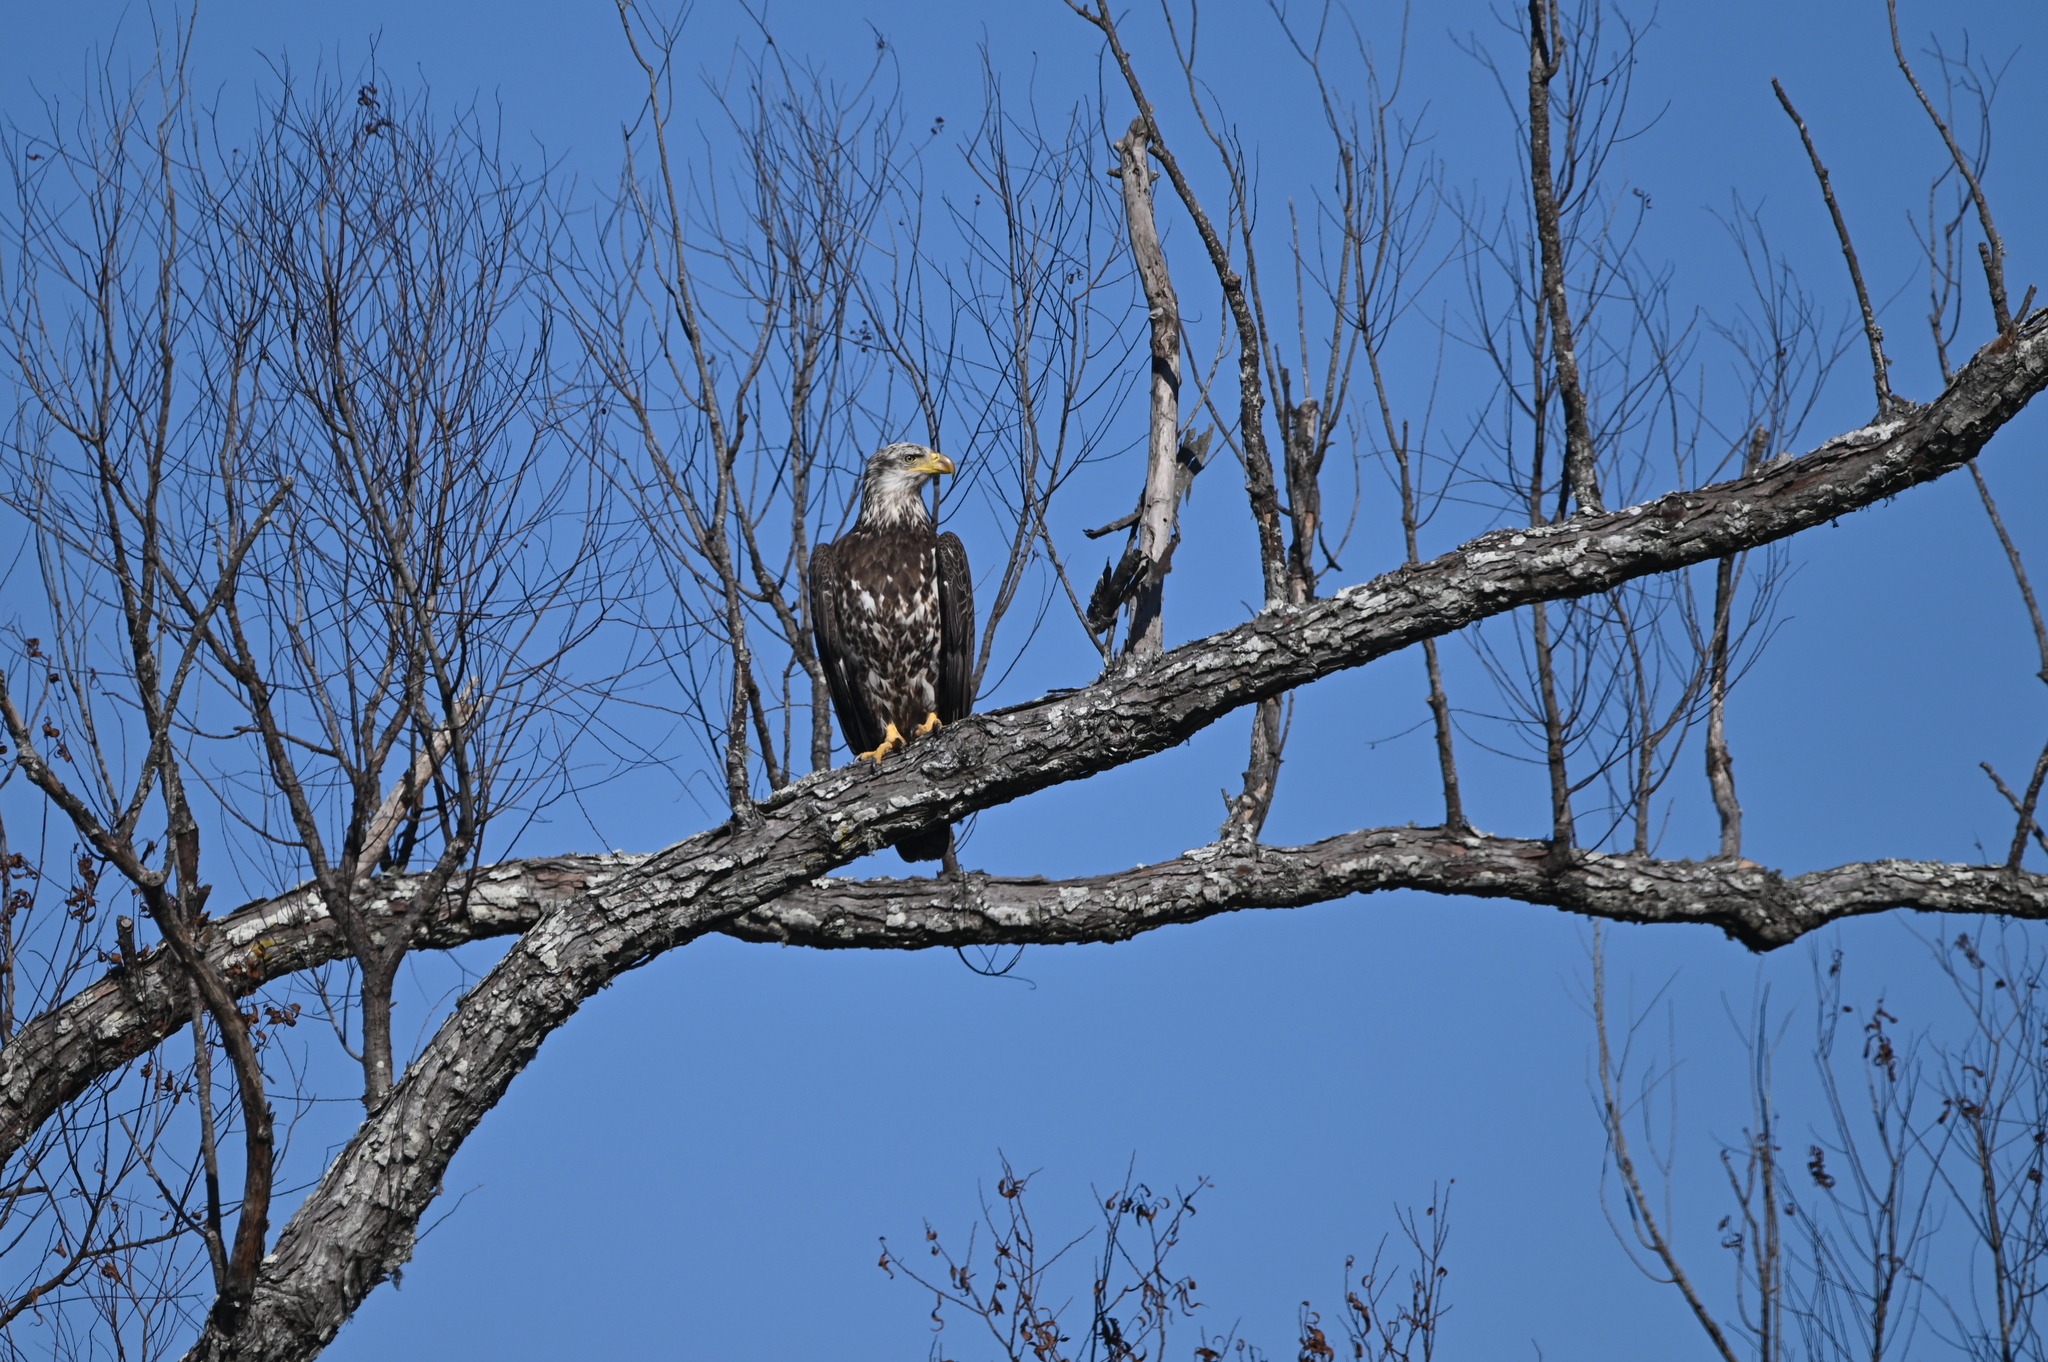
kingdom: Animalia
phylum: Chordata
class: Aves
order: Accipitriformes
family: Accipitridae
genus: Haliaeetus
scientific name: Haliaeetus leucocephalus
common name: Bald eagle
